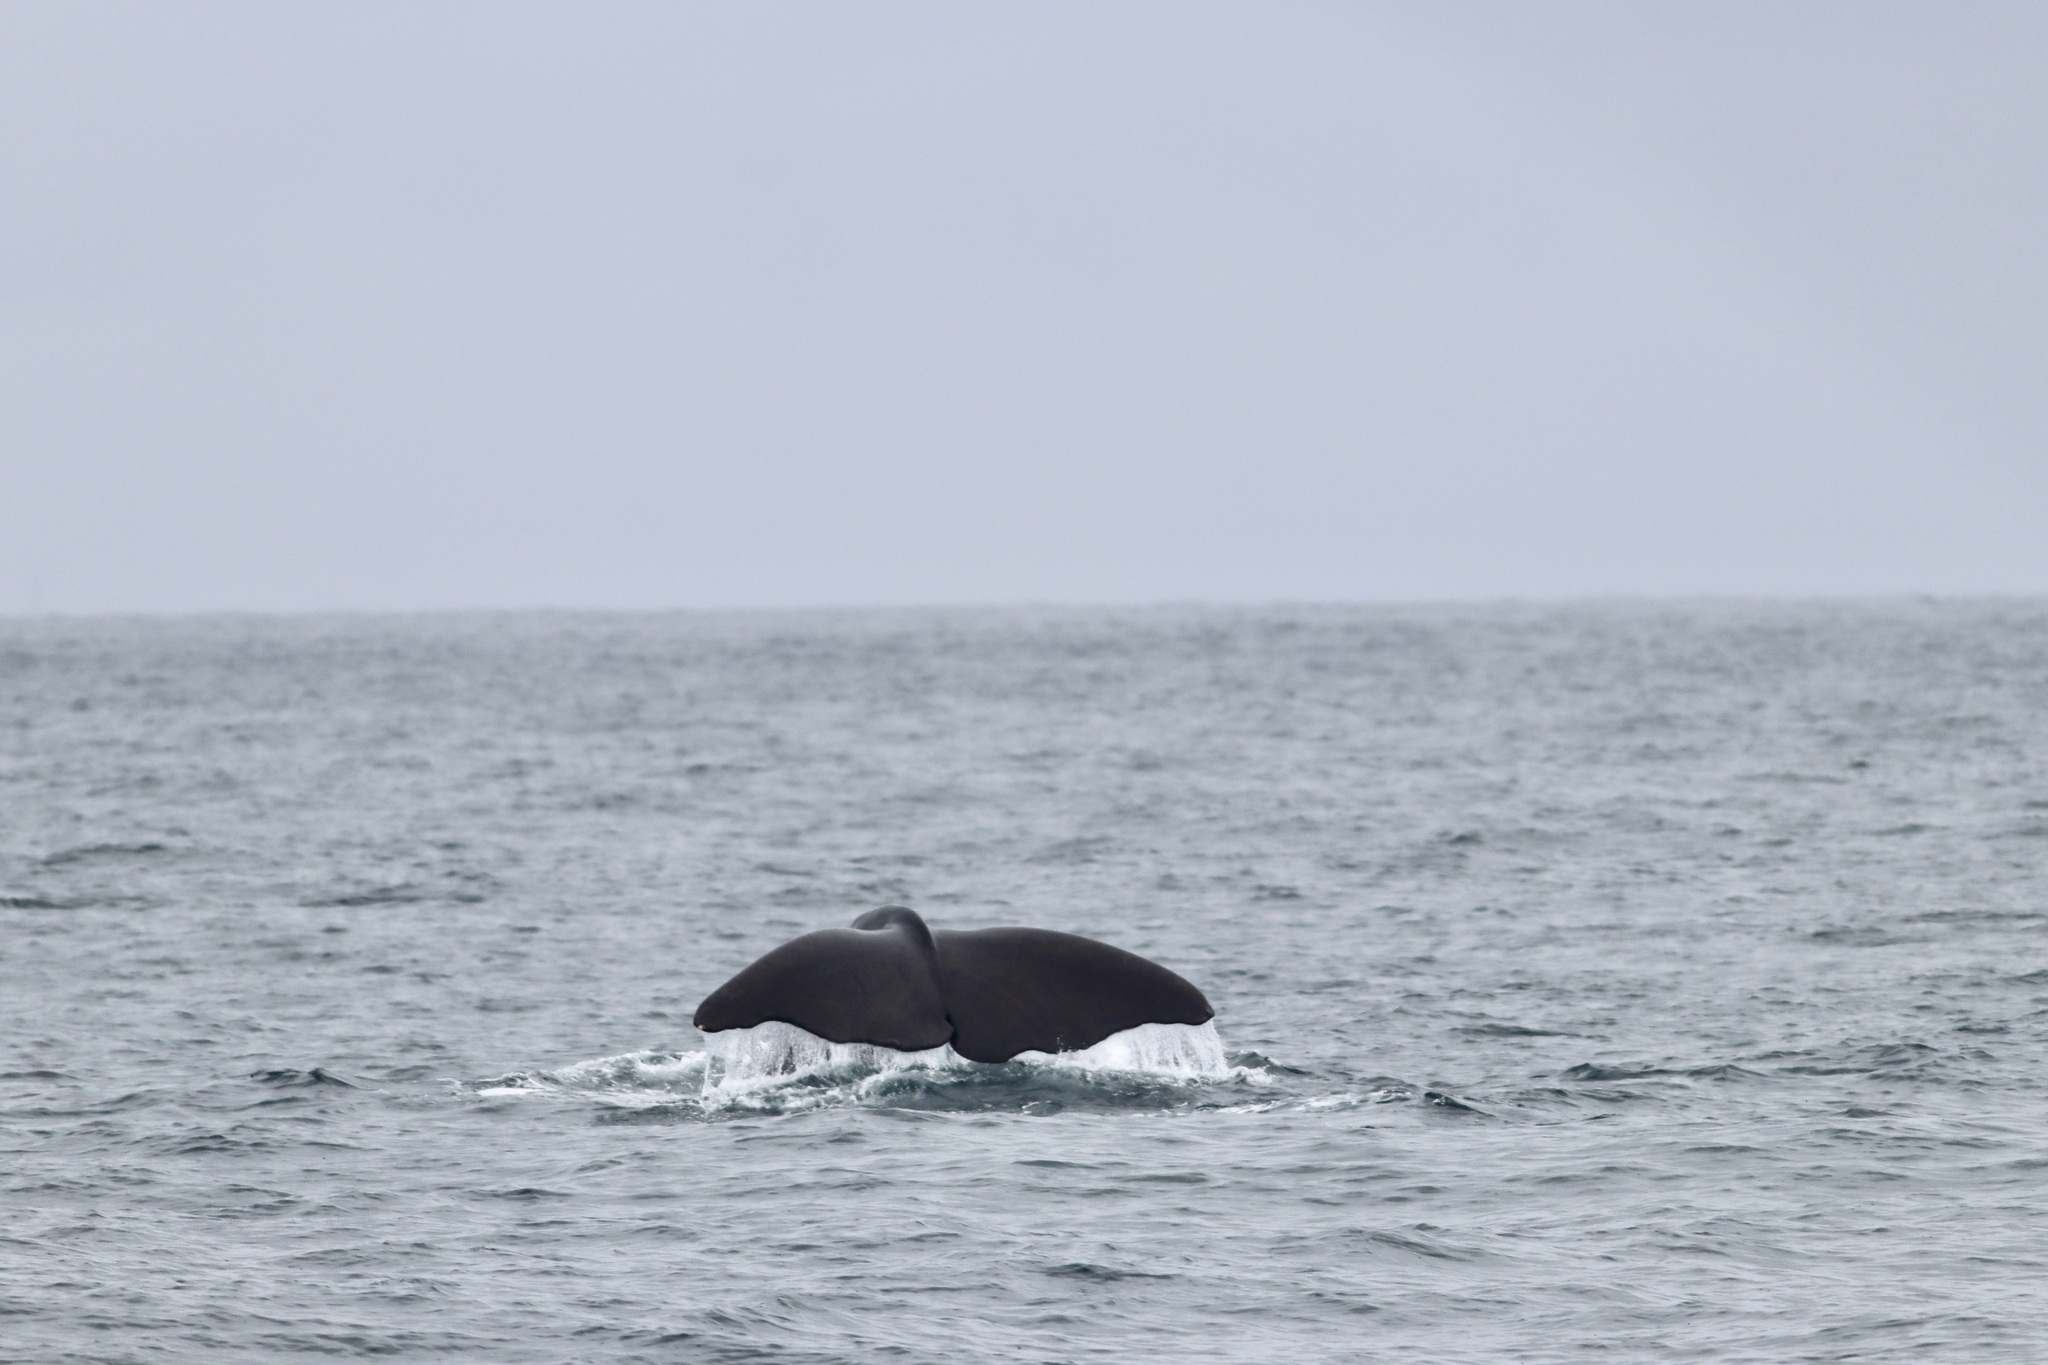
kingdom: Animalia
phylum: Chordata
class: Mammalia
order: Cetacea
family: Physeteridae
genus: Physeter
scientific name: Physeter macrocephalus
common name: Sperm whale
